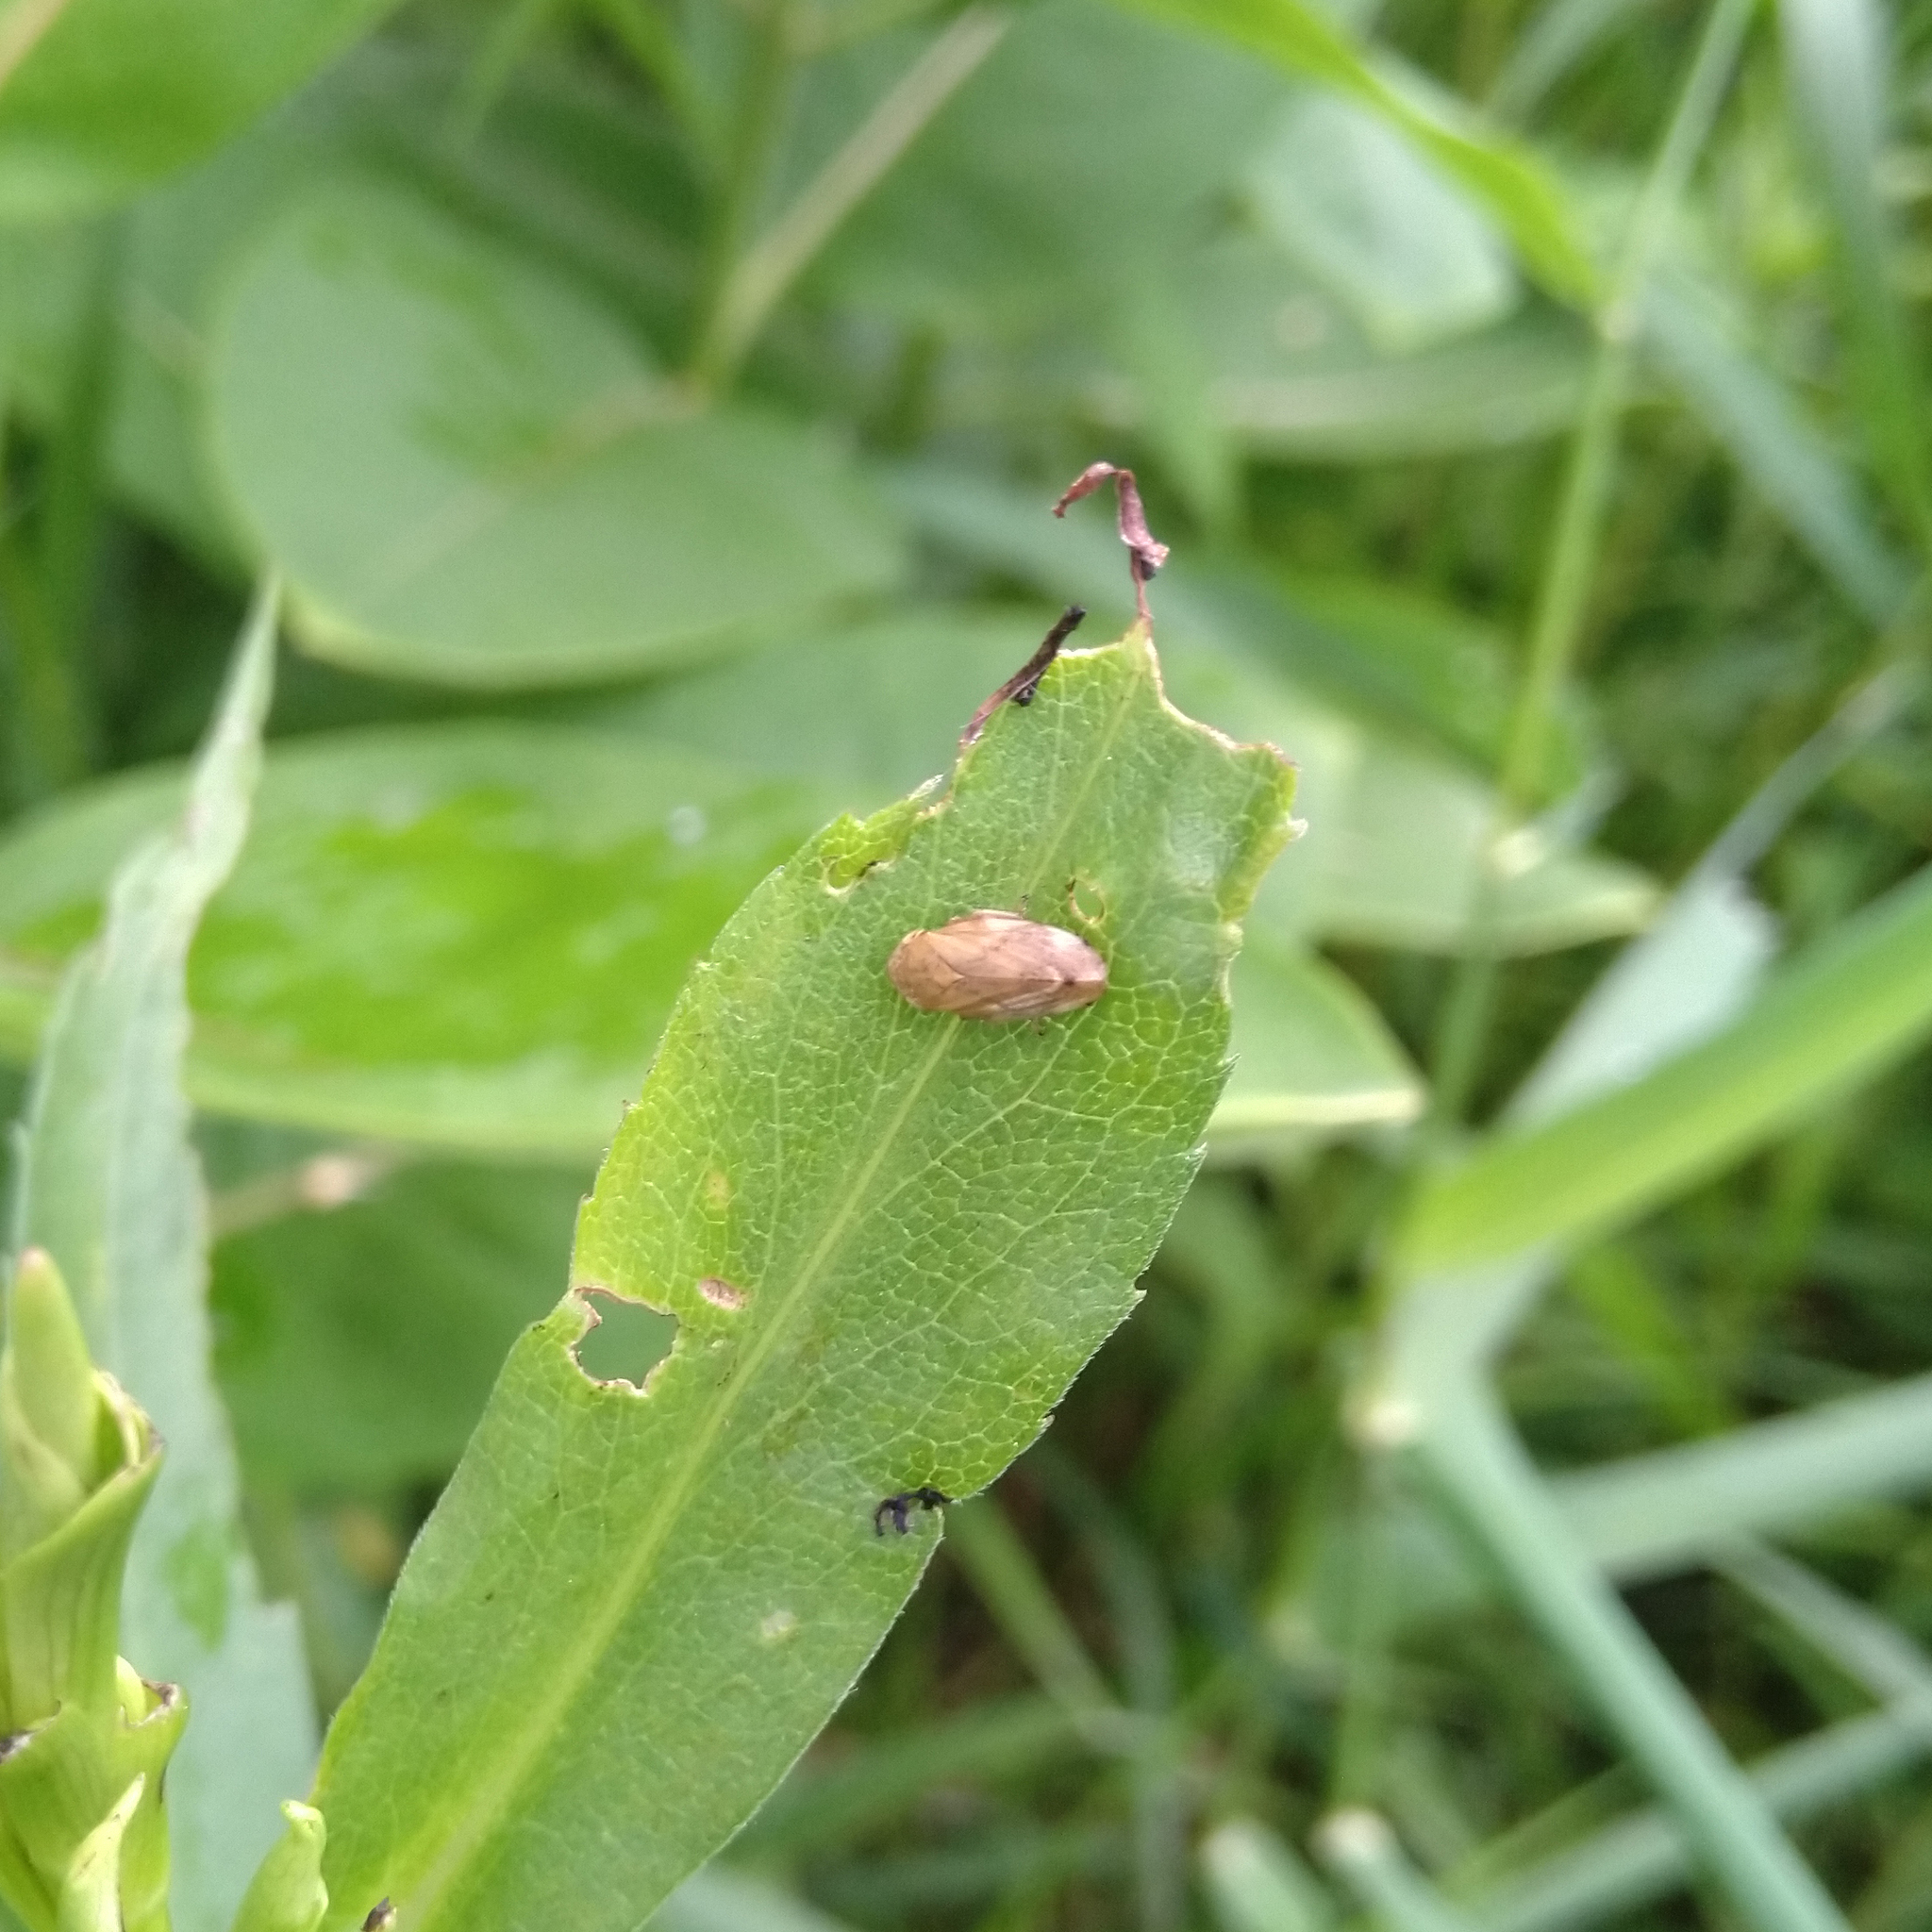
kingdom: Animalia
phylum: Arthropoda
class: Insecta
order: Hemiptera
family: Aphrophoridae
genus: Philaenus
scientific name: Philaenus spumarius
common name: Meadow spittlebug
